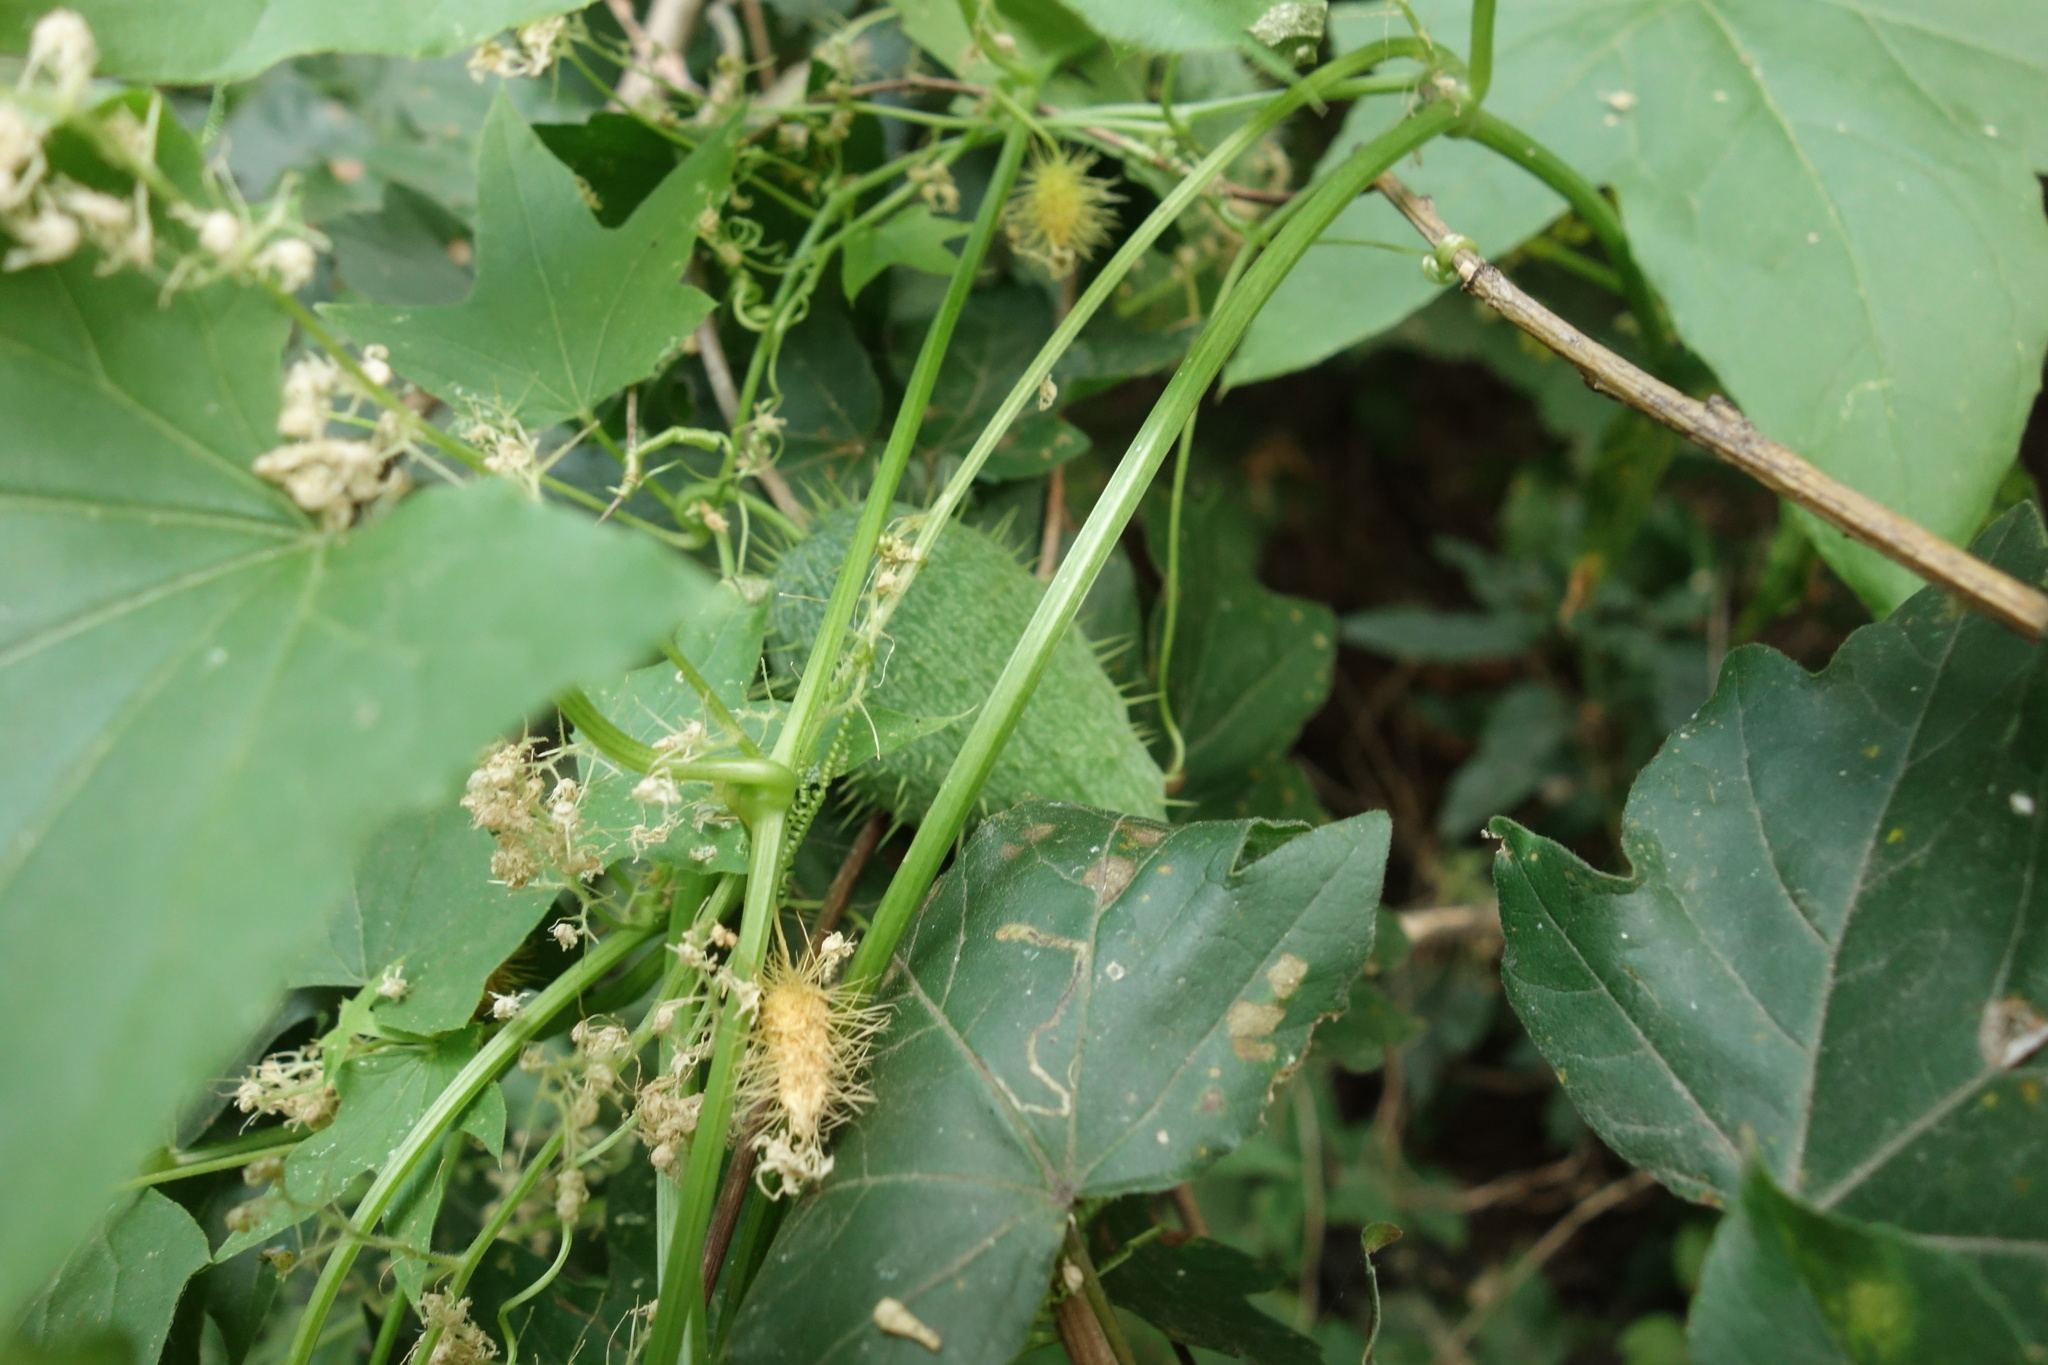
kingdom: Plantae
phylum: Tracheophyta
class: Magnoliopsida
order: Cucurbitales
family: Cucurbitaceae
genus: Echinocystis
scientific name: Echinocystis lobata
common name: Wild cucumber
